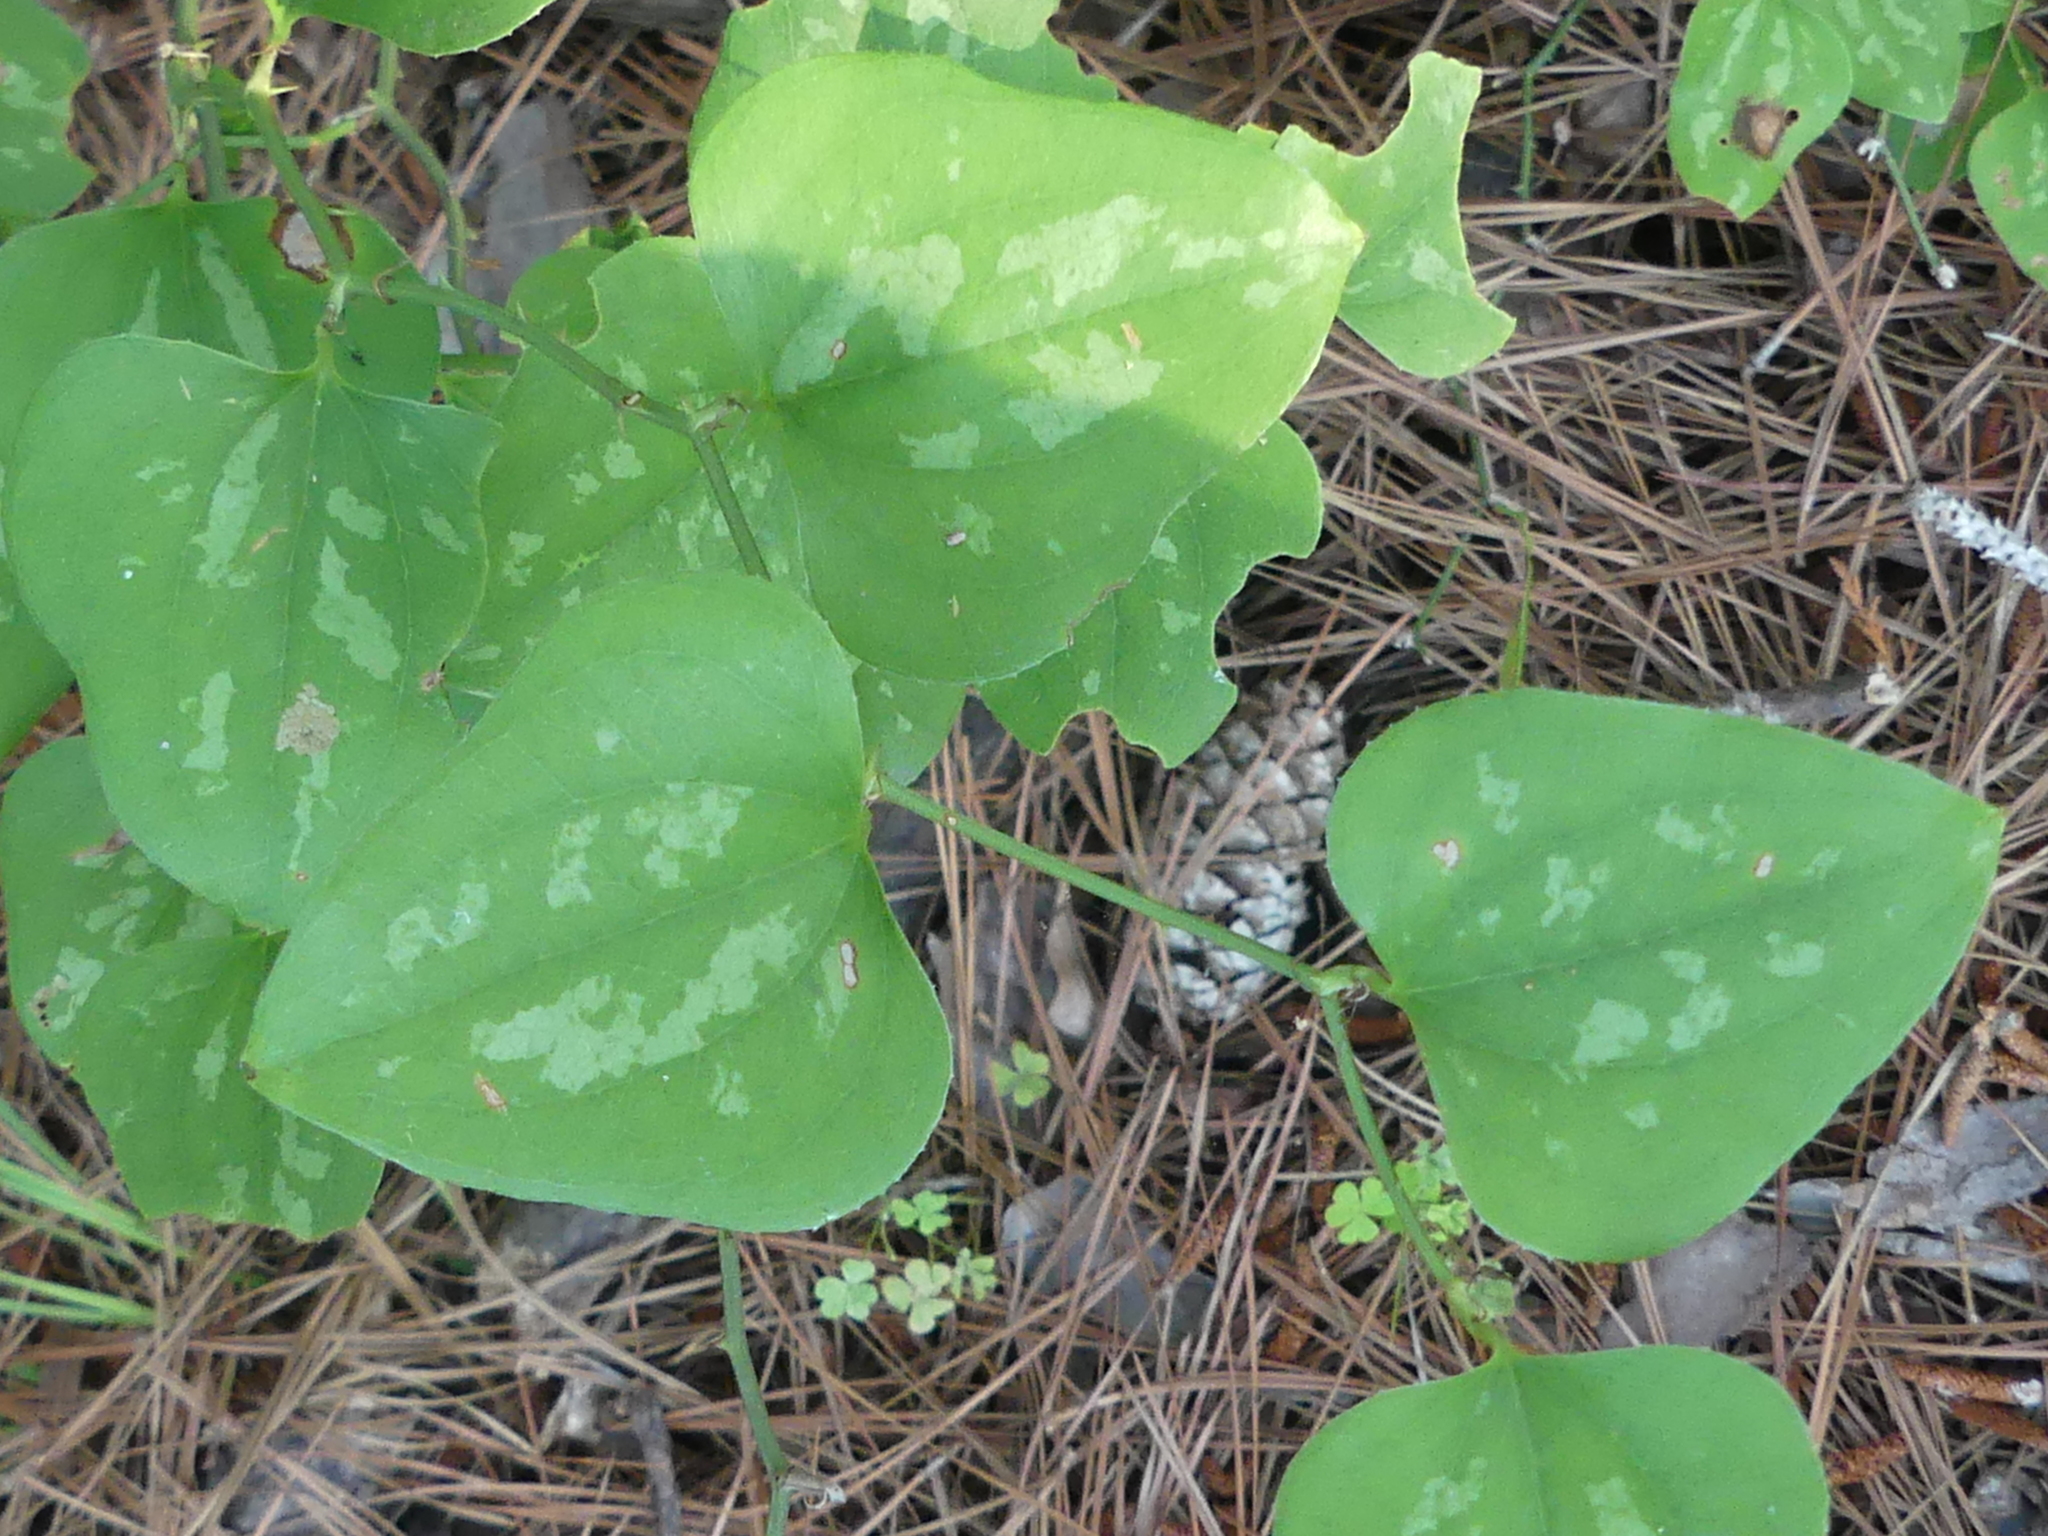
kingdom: Plantae
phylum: Tracheophyta
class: Liliopsida
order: Liliales
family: Smilacaceae
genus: Smilax
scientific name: Smilax bona-nox
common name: Catbrier
